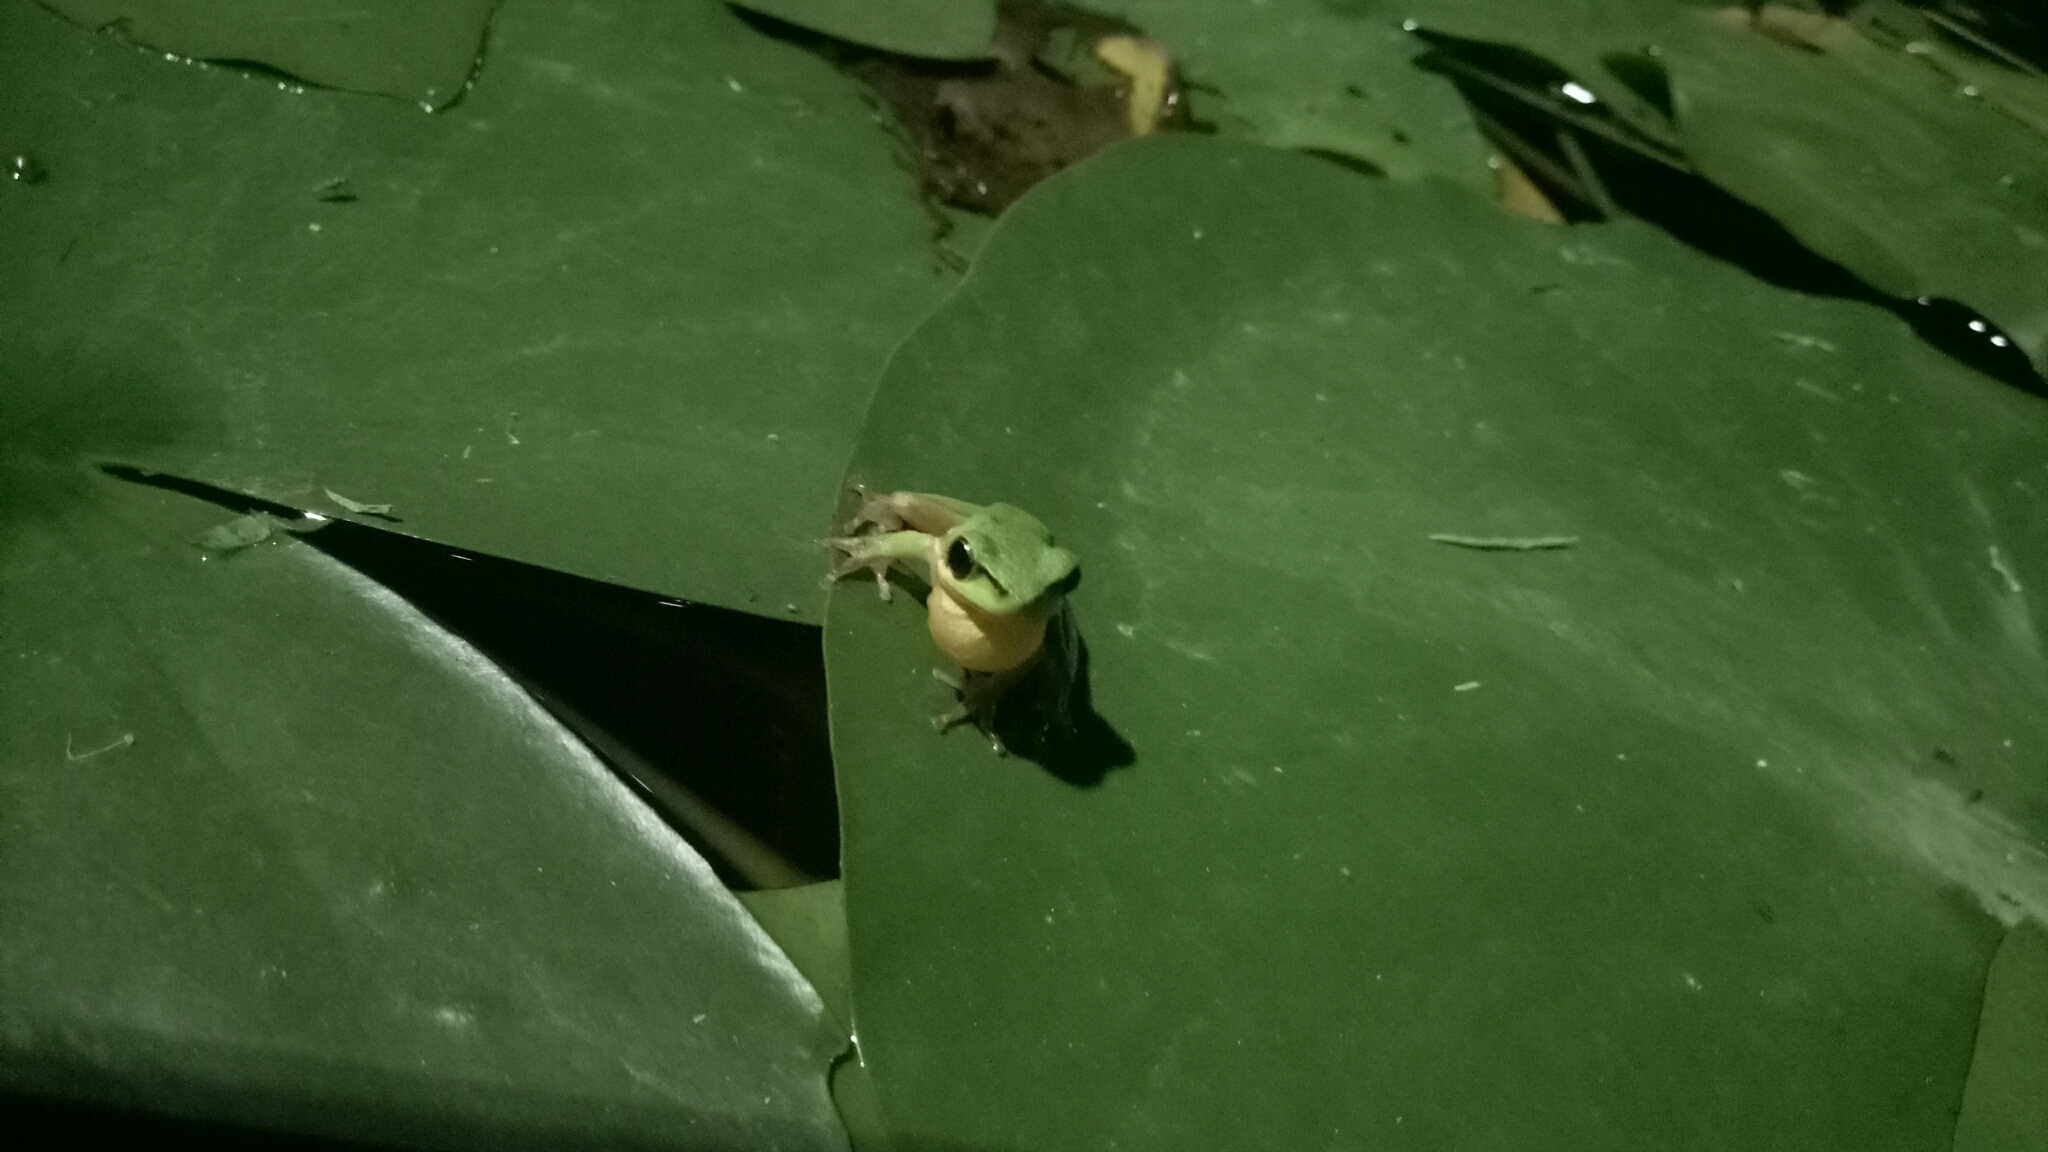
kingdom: Animalia
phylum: Chordata
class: Amphibia
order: Anura
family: Pelodryadidae
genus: Litoria
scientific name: Litoria fallax
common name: Eastern dwarf treefrog
